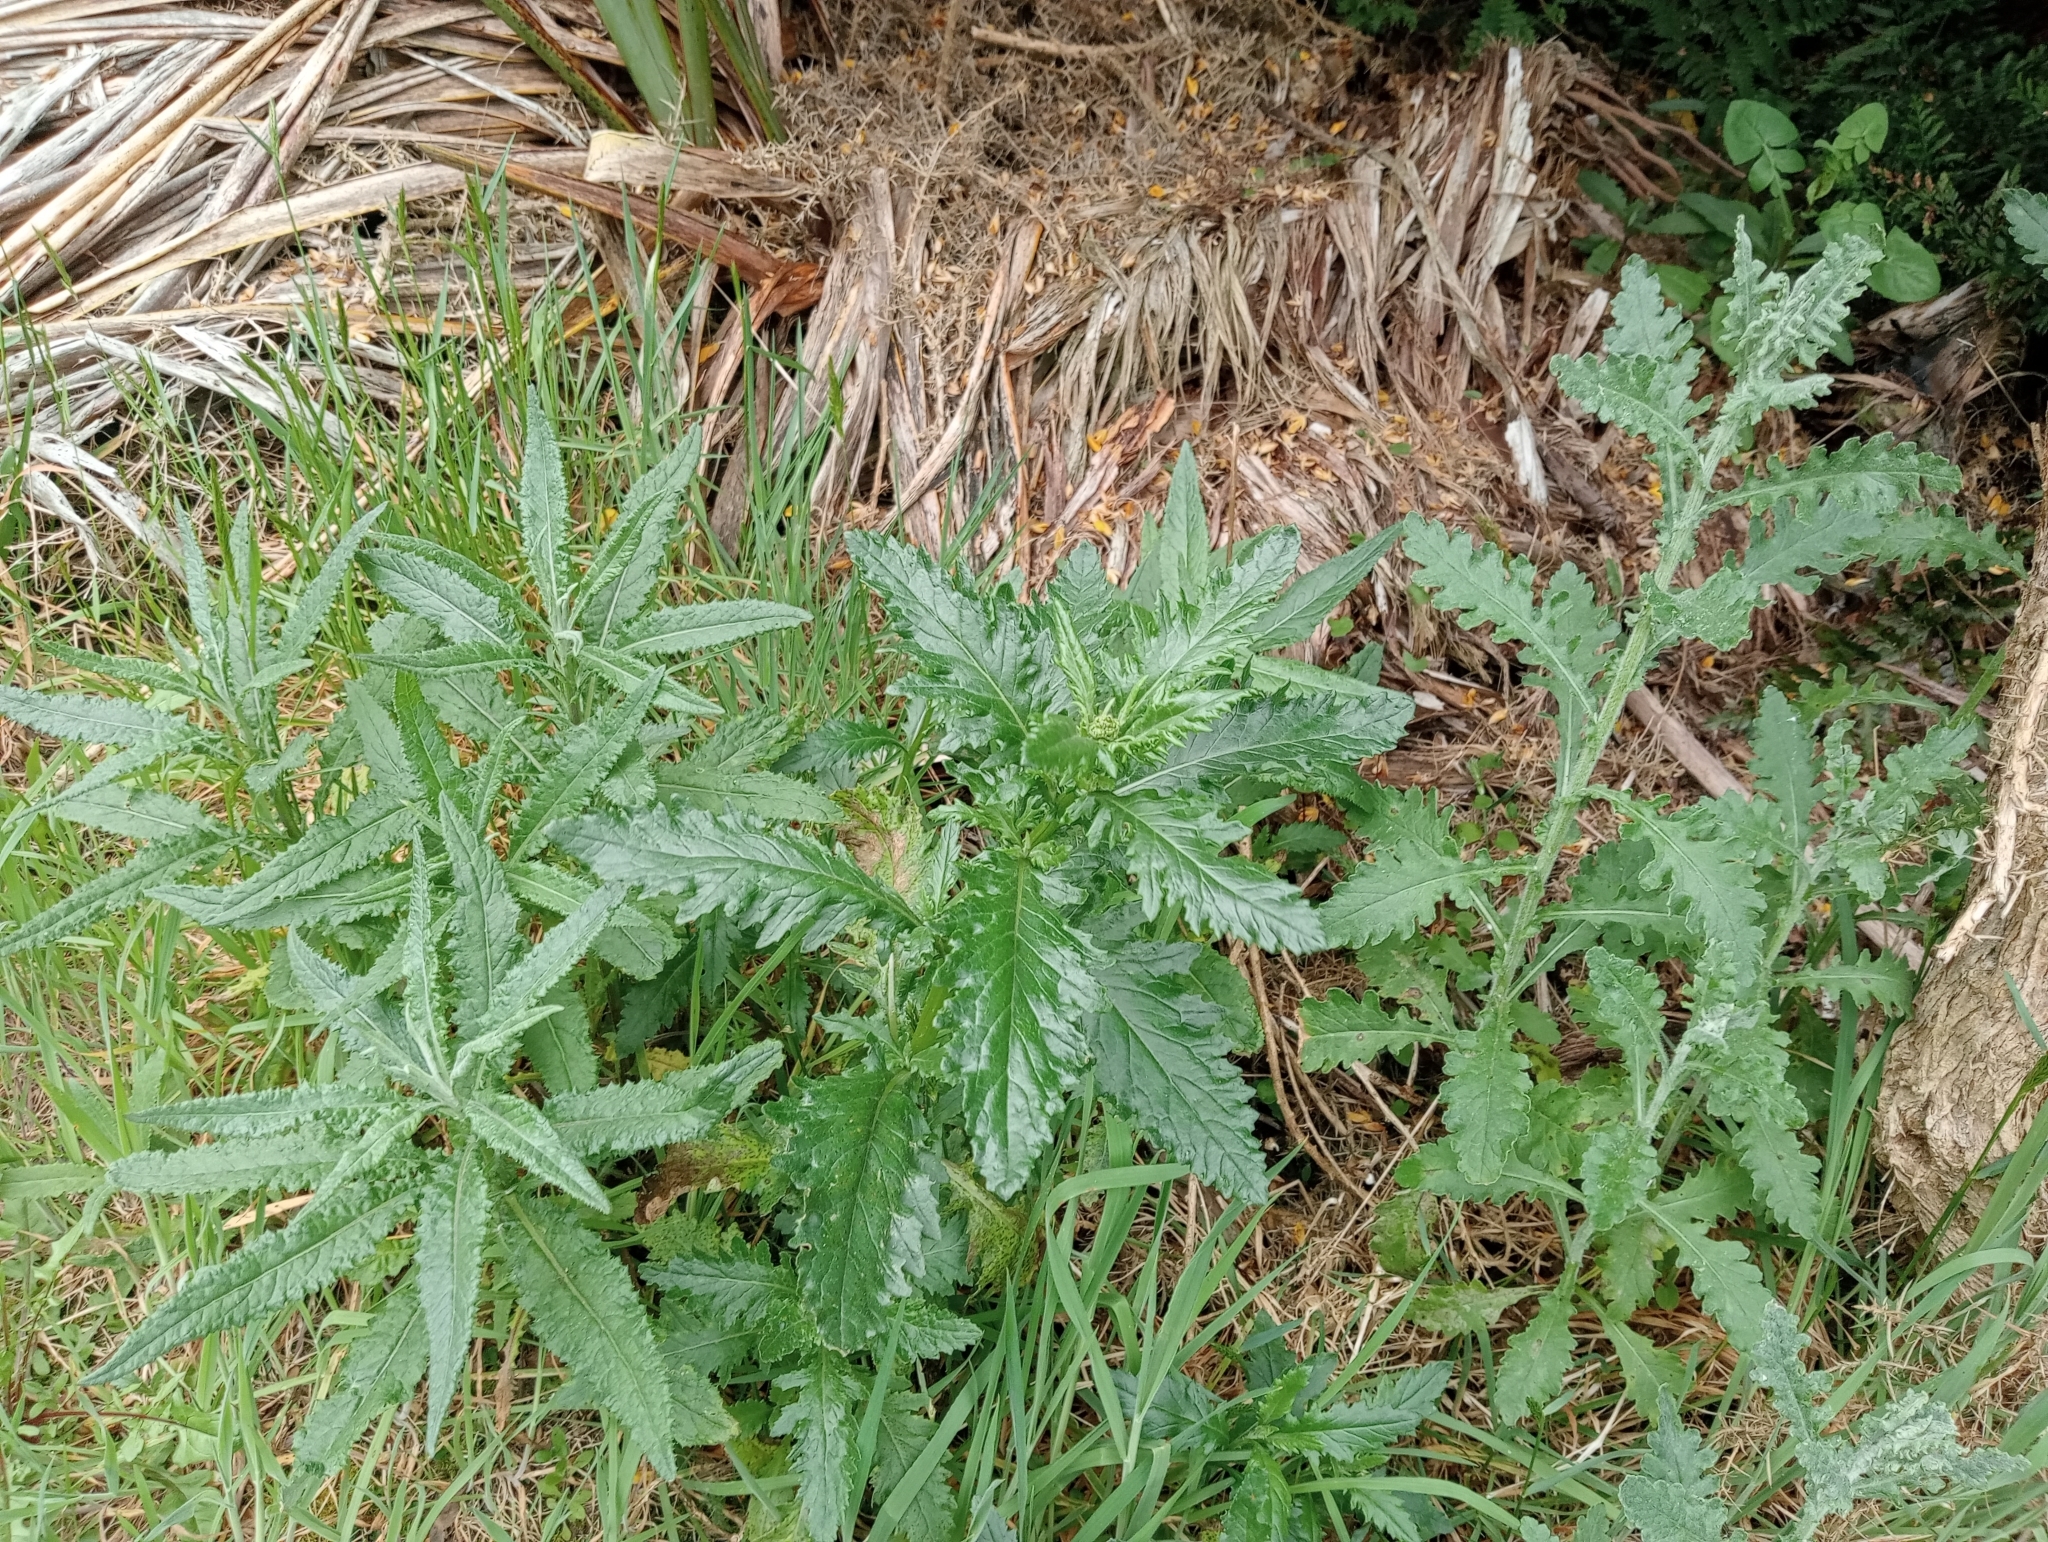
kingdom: Plantae
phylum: Tracheophyta
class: Magnoliopsida
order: Asterales
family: Asteraceae
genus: Senecio
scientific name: Senecio minimus
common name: Toothed fireweed
